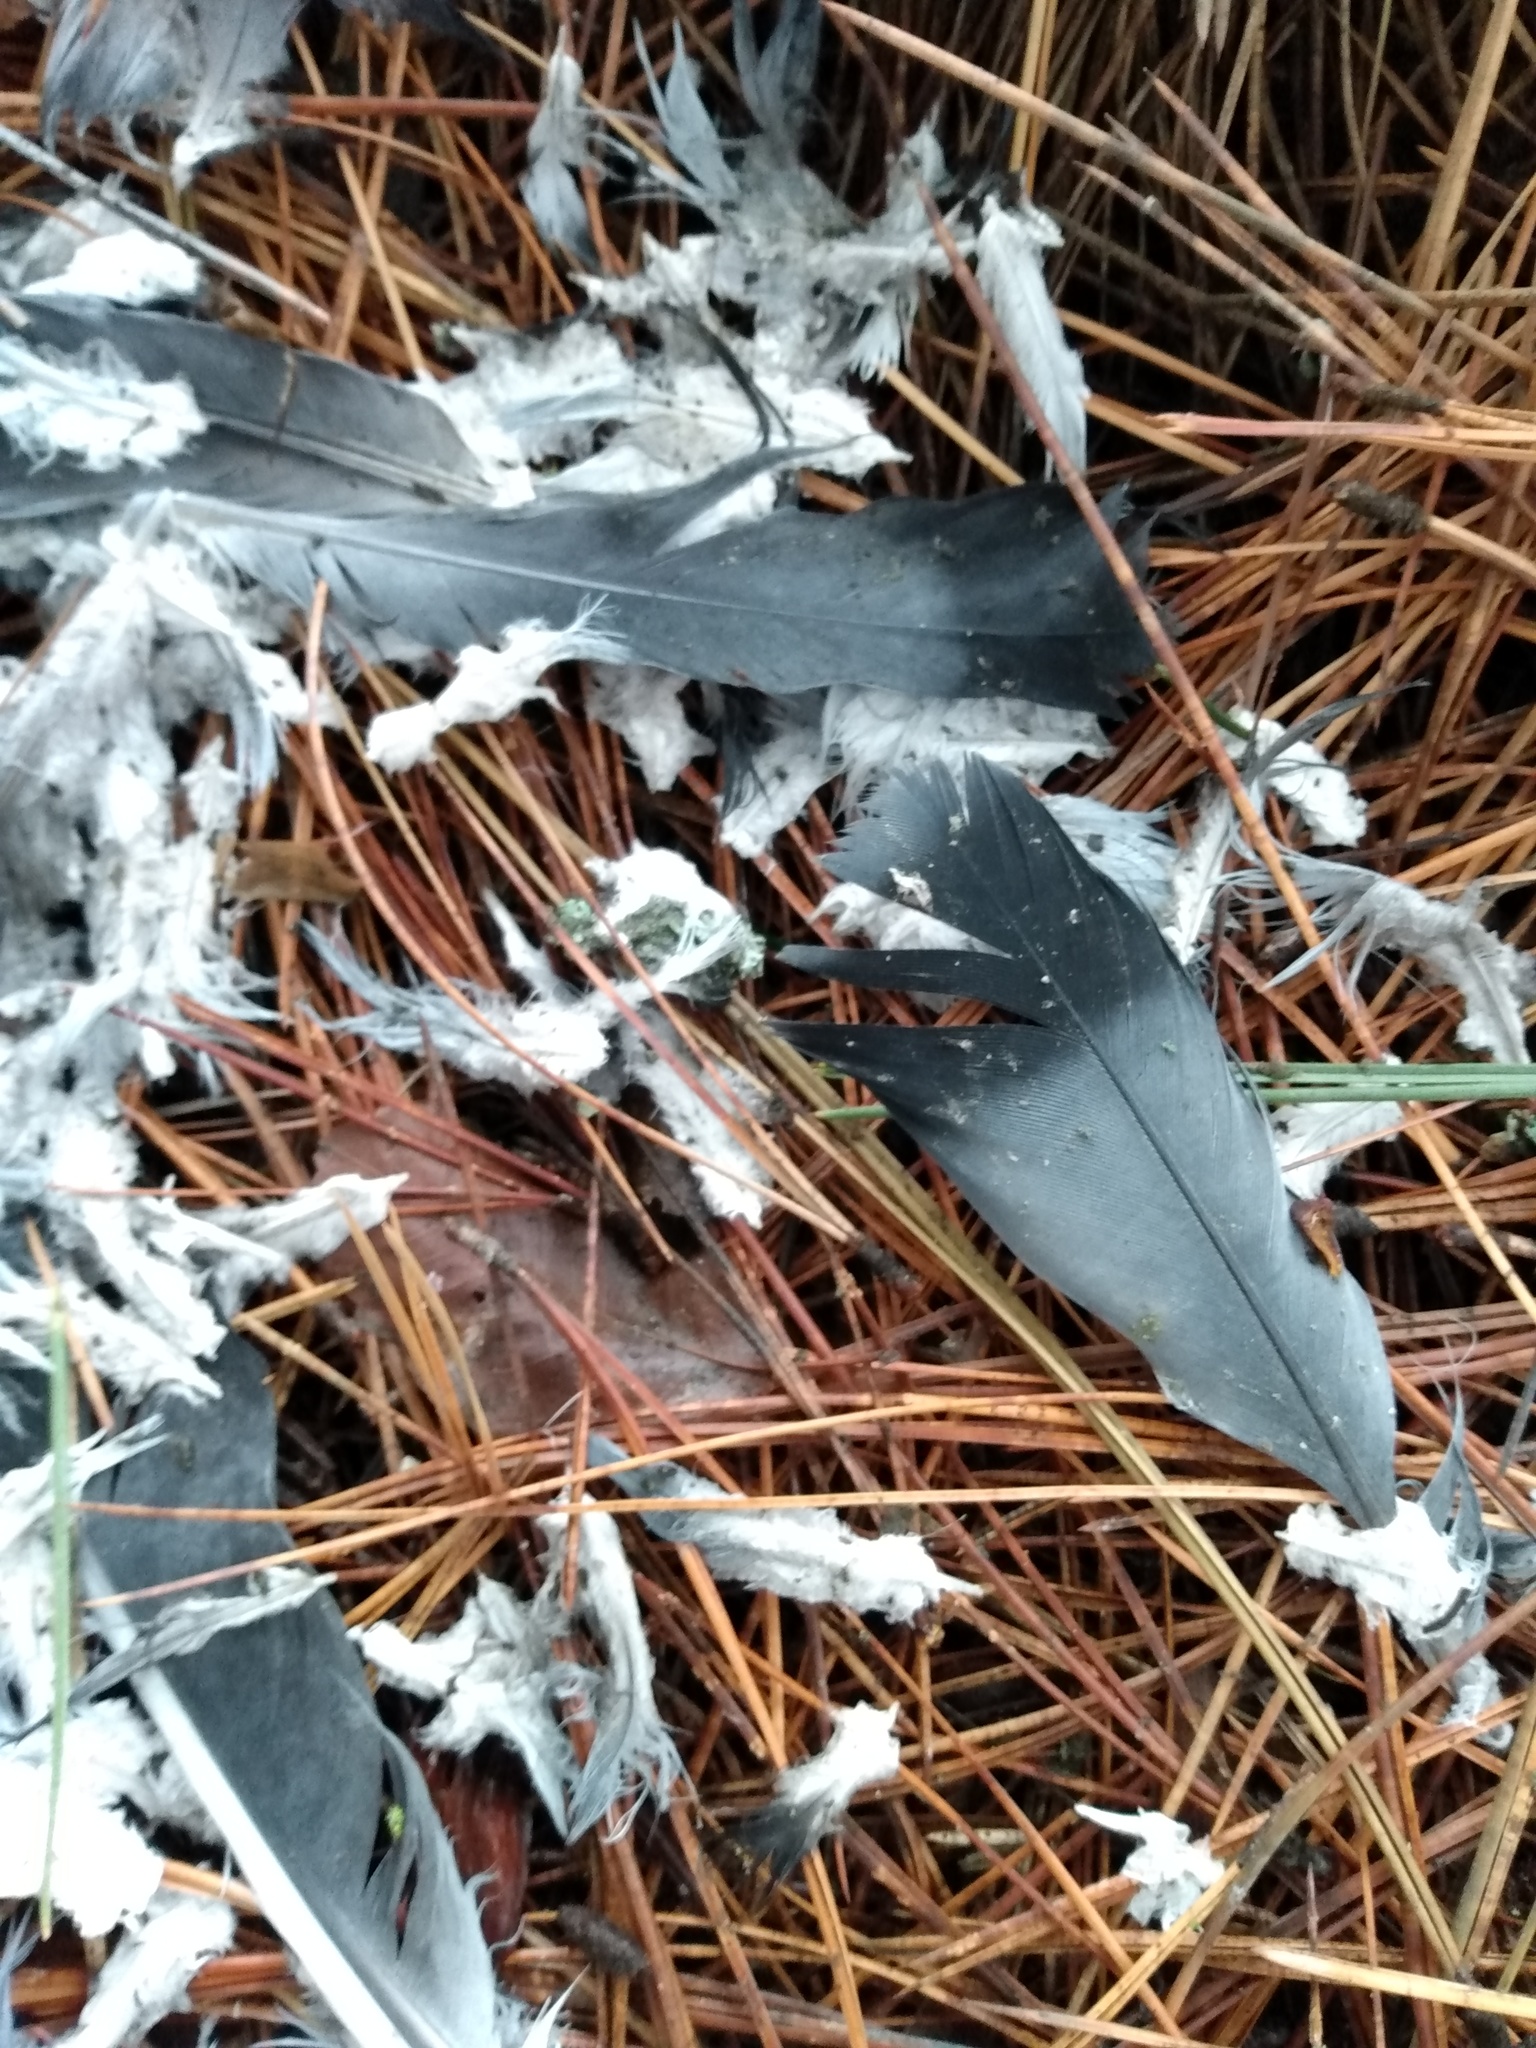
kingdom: Animalia
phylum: Chordata
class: Aves
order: Columbiformes
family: Columbidae
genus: Columba
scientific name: Columba livia
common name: Rock pigeon
